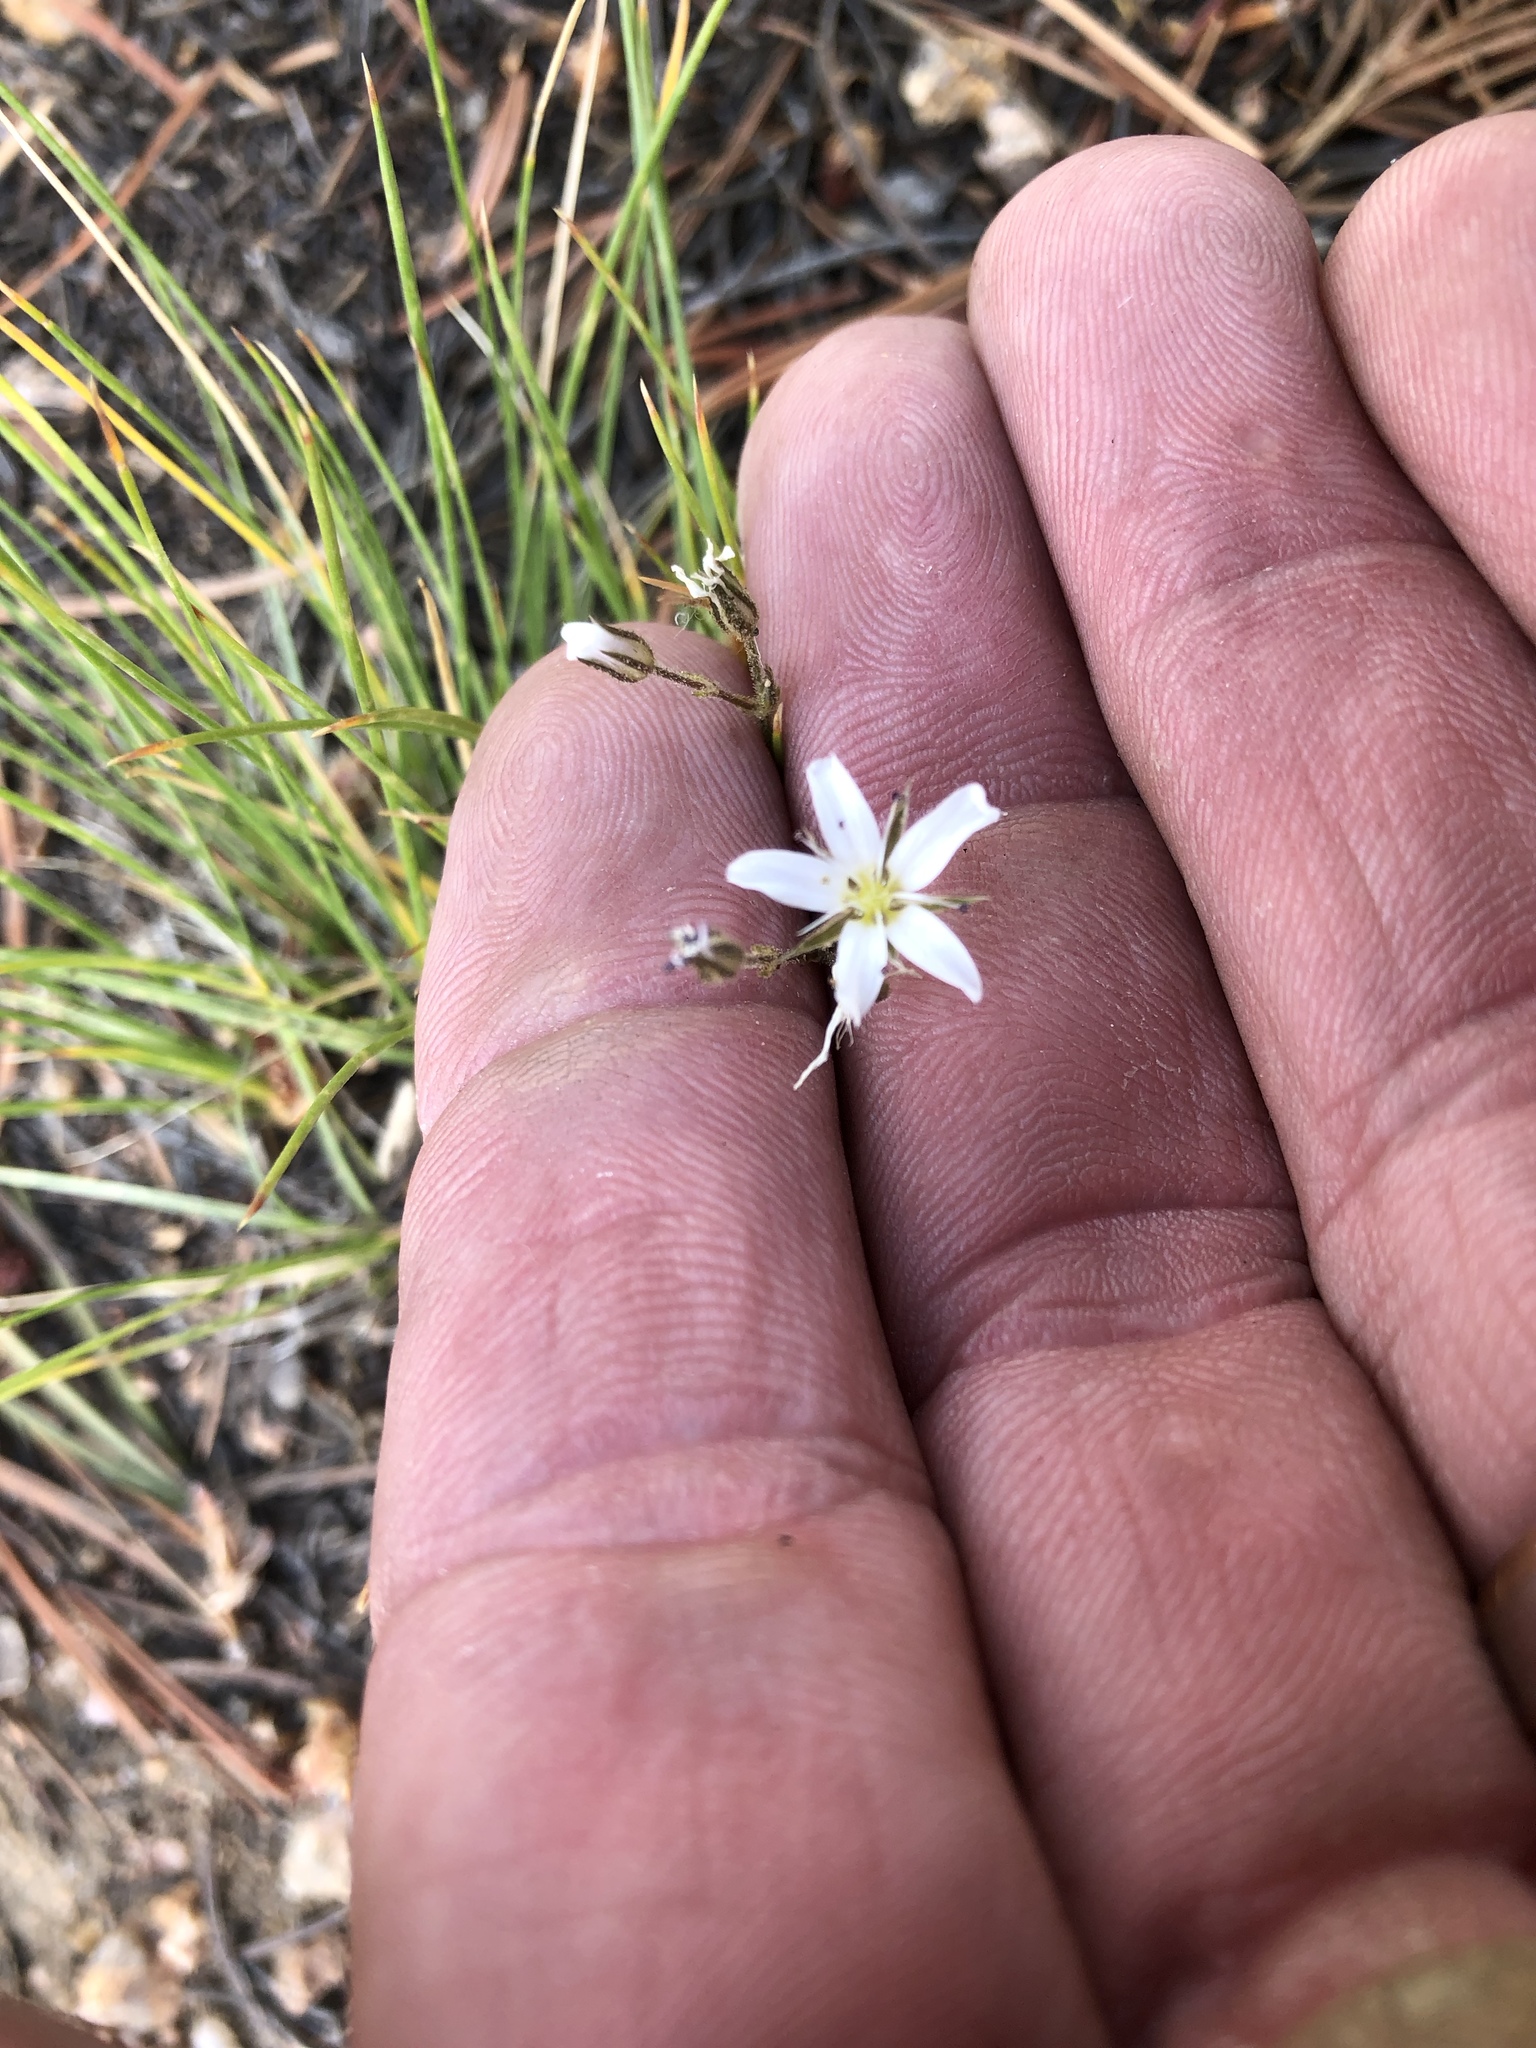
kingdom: Plantae
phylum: Tracheophyta
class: Magnoliopsida
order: Caryophyllales
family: Caryophyllaceae
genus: Eremogone
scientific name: Eremogone fendleri
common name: Fendler's sandwort
